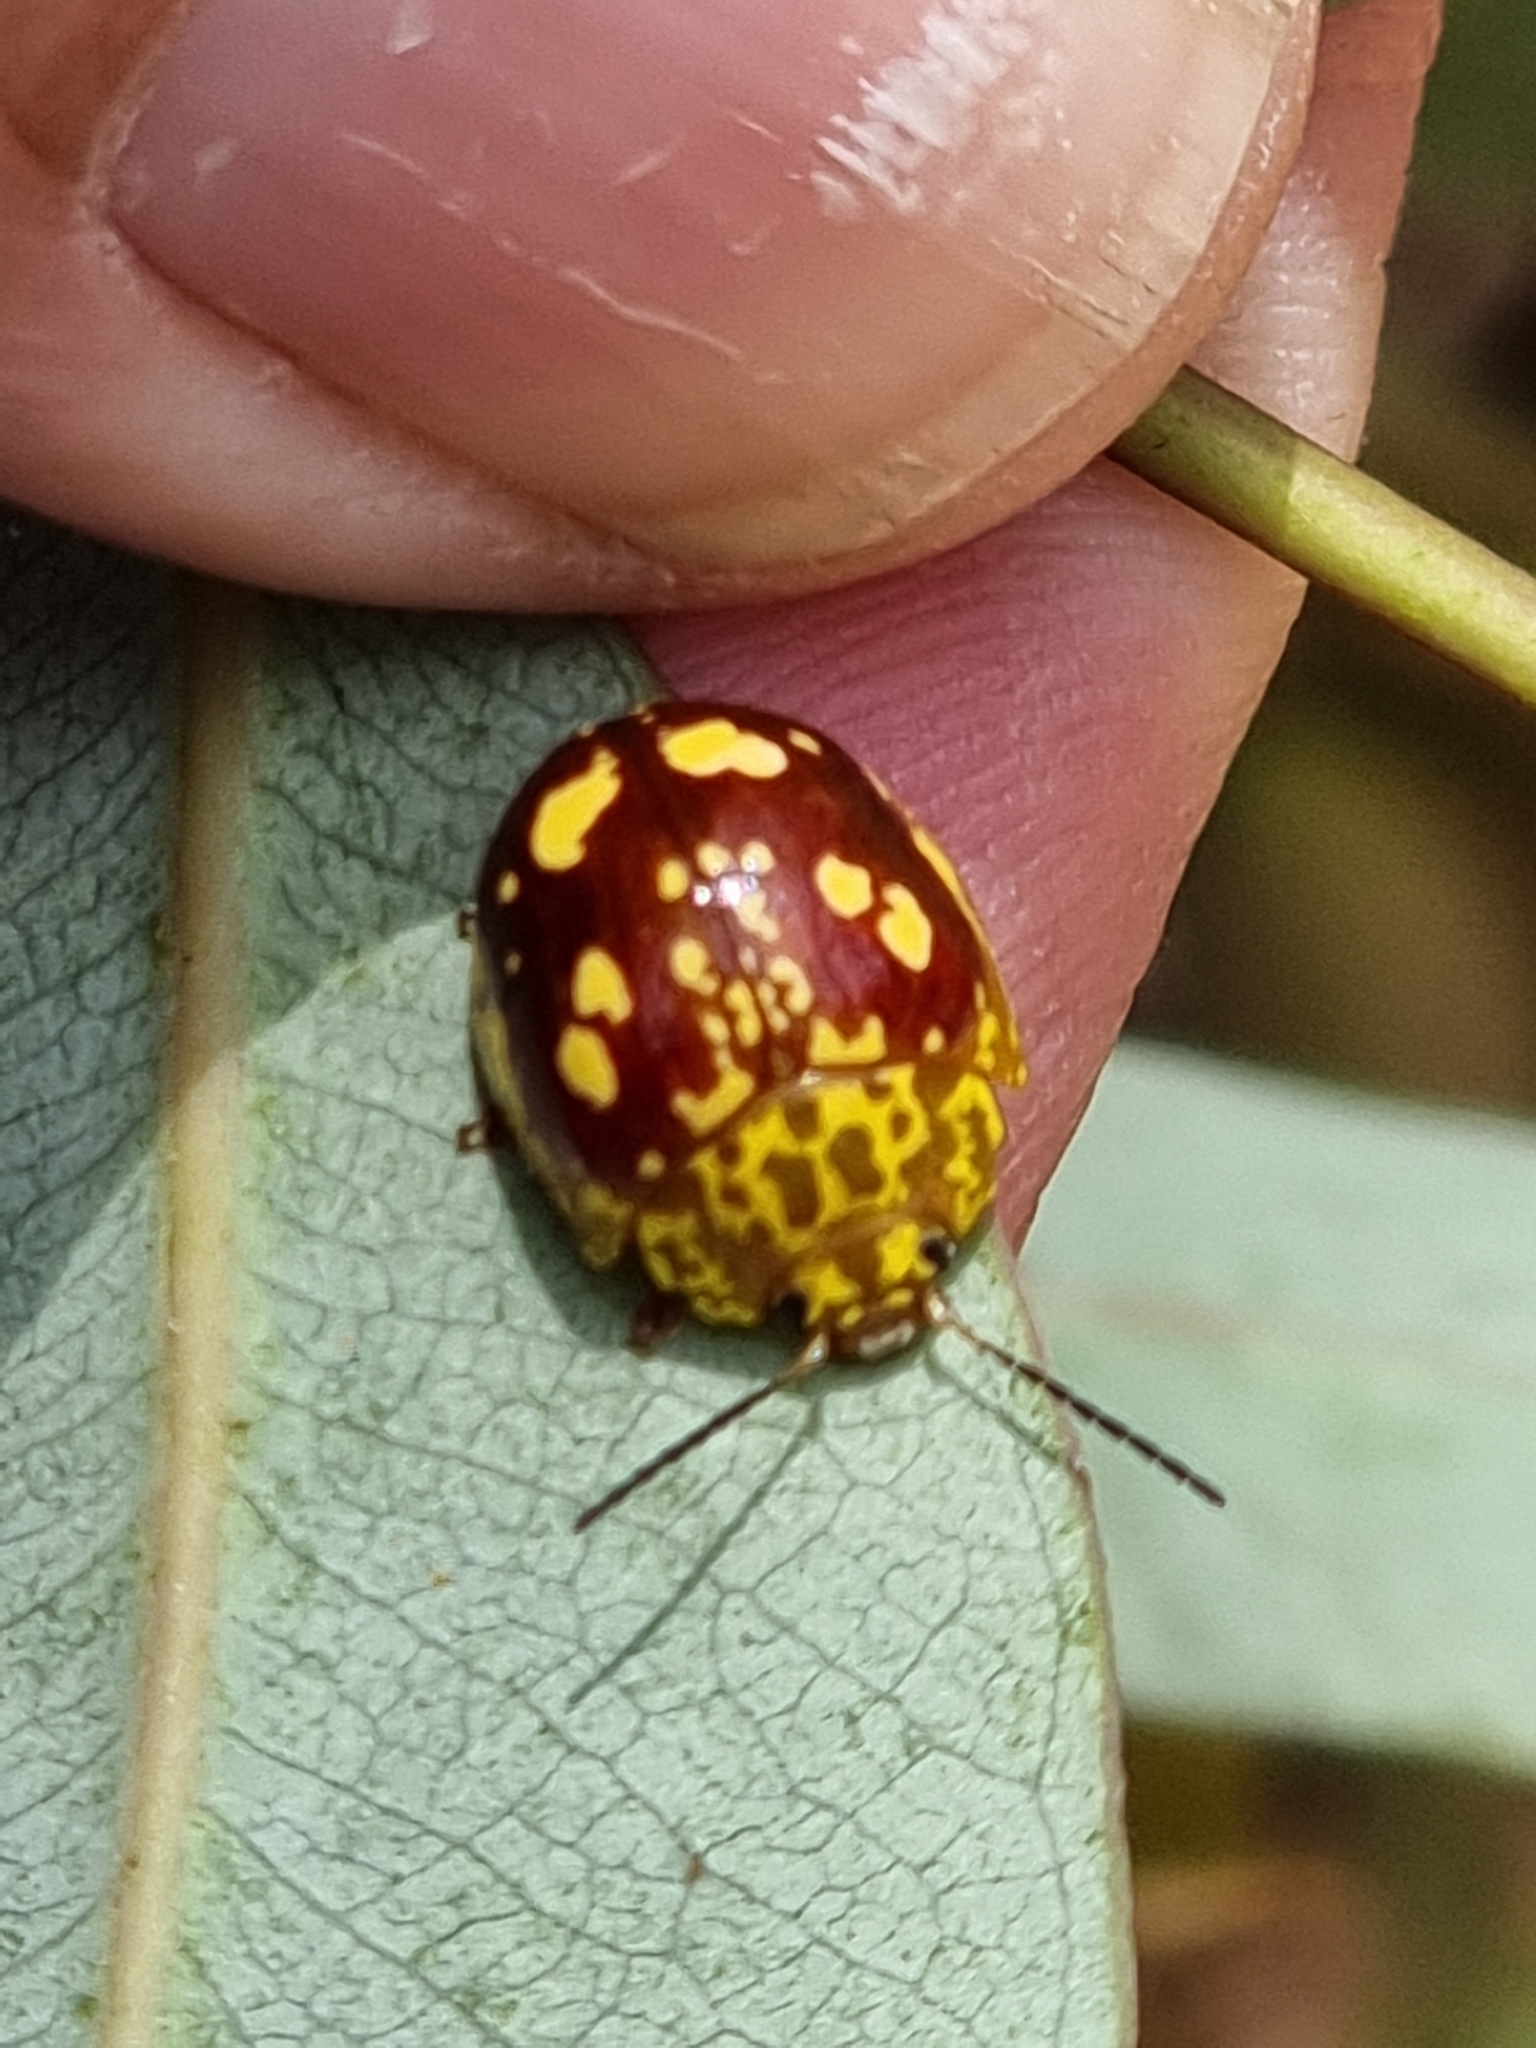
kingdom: Animalia
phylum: Arthropoda
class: Insecta
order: Coleoptera
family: Chrysomelidae
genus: Paropsis
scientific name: Paropsis maculata
